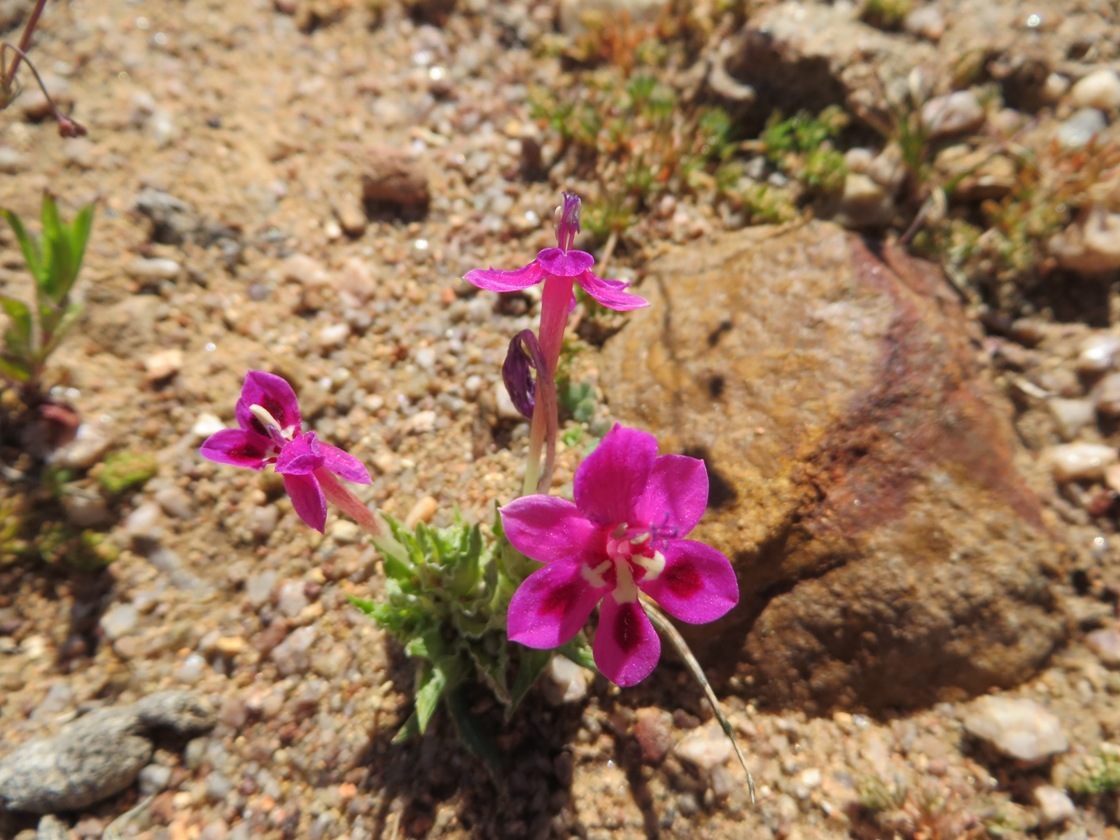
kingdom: Plantae
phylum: Tracheophyta
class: Liliopsida
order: Asparagales
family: Iridaceae
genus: Lapeirousia
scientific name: Lapeirousia silenoides
